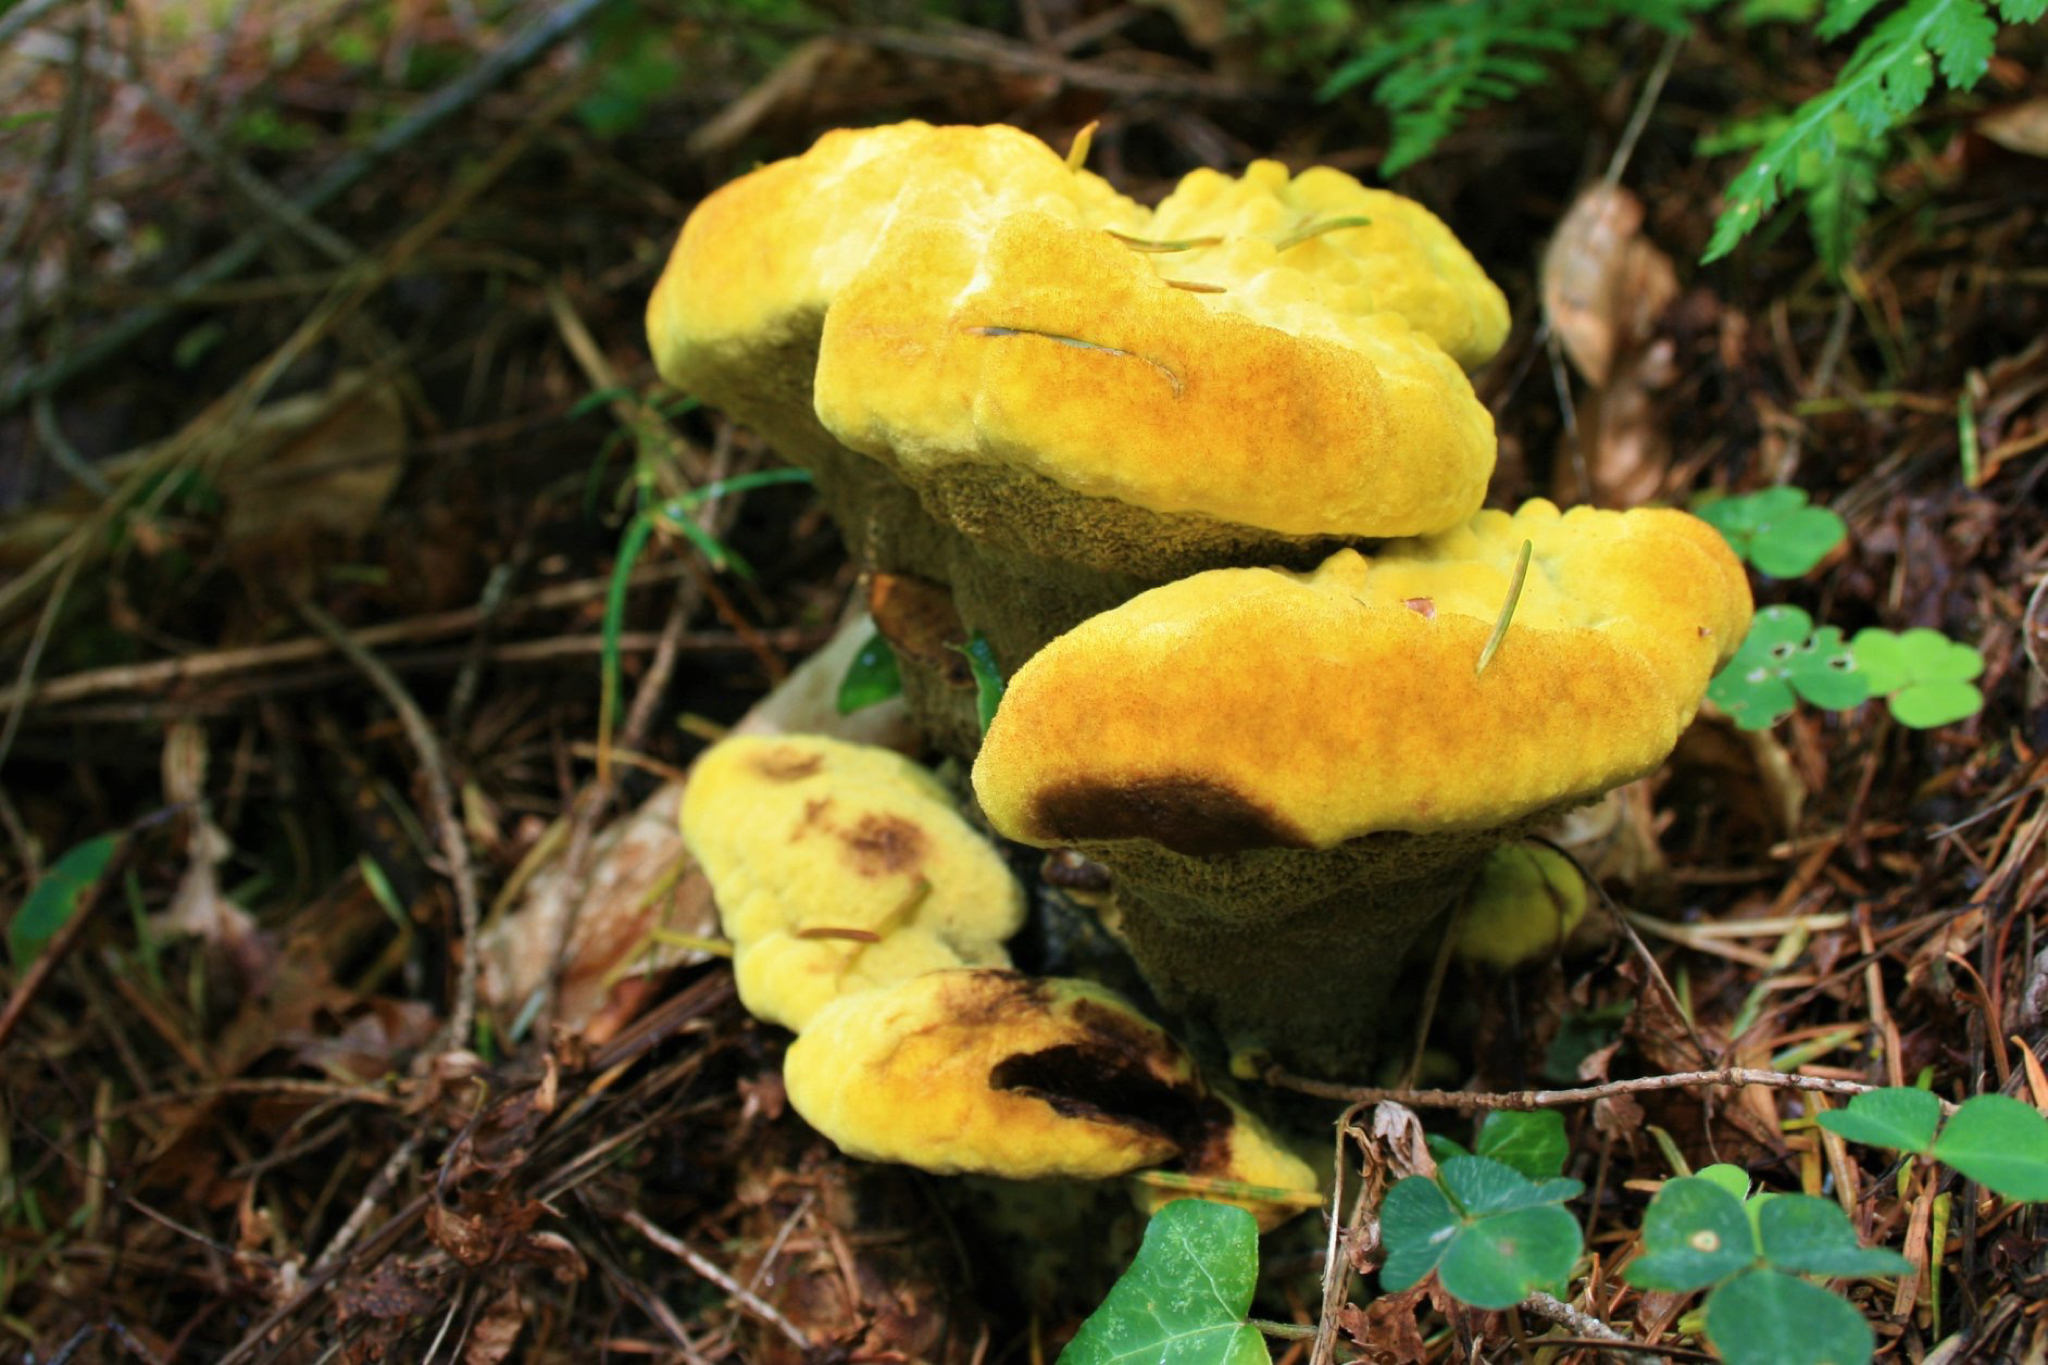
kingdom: Fungi
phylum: Basidiomycota
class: Agaricomycetes
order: Polyporales
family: Laetiporaceae
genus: Phaeolus
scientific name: Phaeolus schweinitzii
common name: Dyer's mazegill
